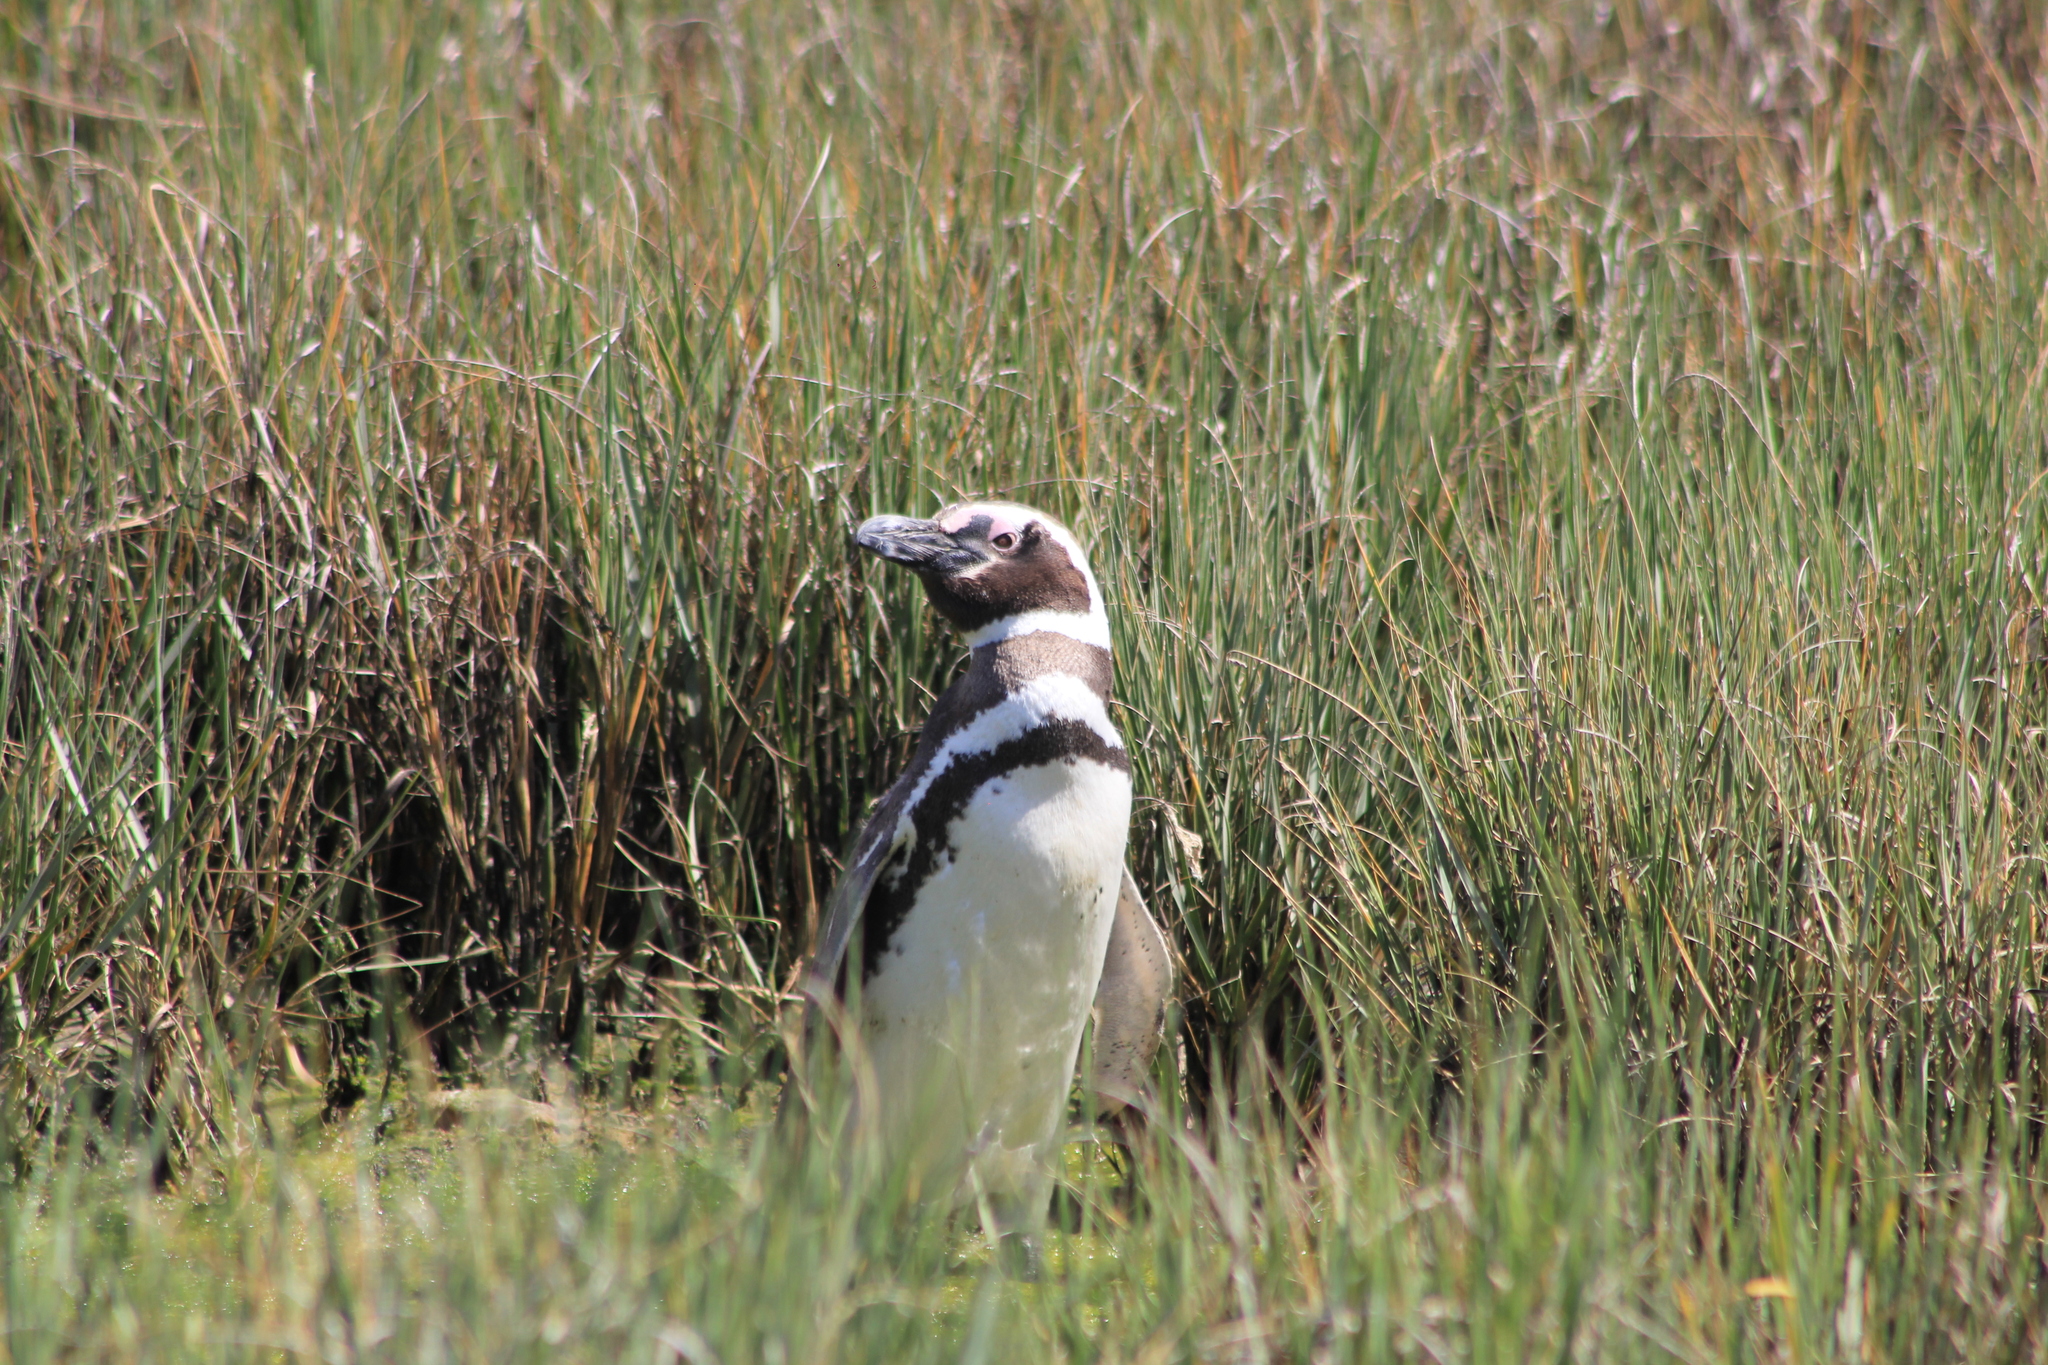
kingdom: Animalia
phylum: Chordata
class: Aves
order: Sphenisciformes
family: Spheniscidae
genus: Spheniscus
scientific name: Spheniscus magellanicus
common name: Magellanic penguin
